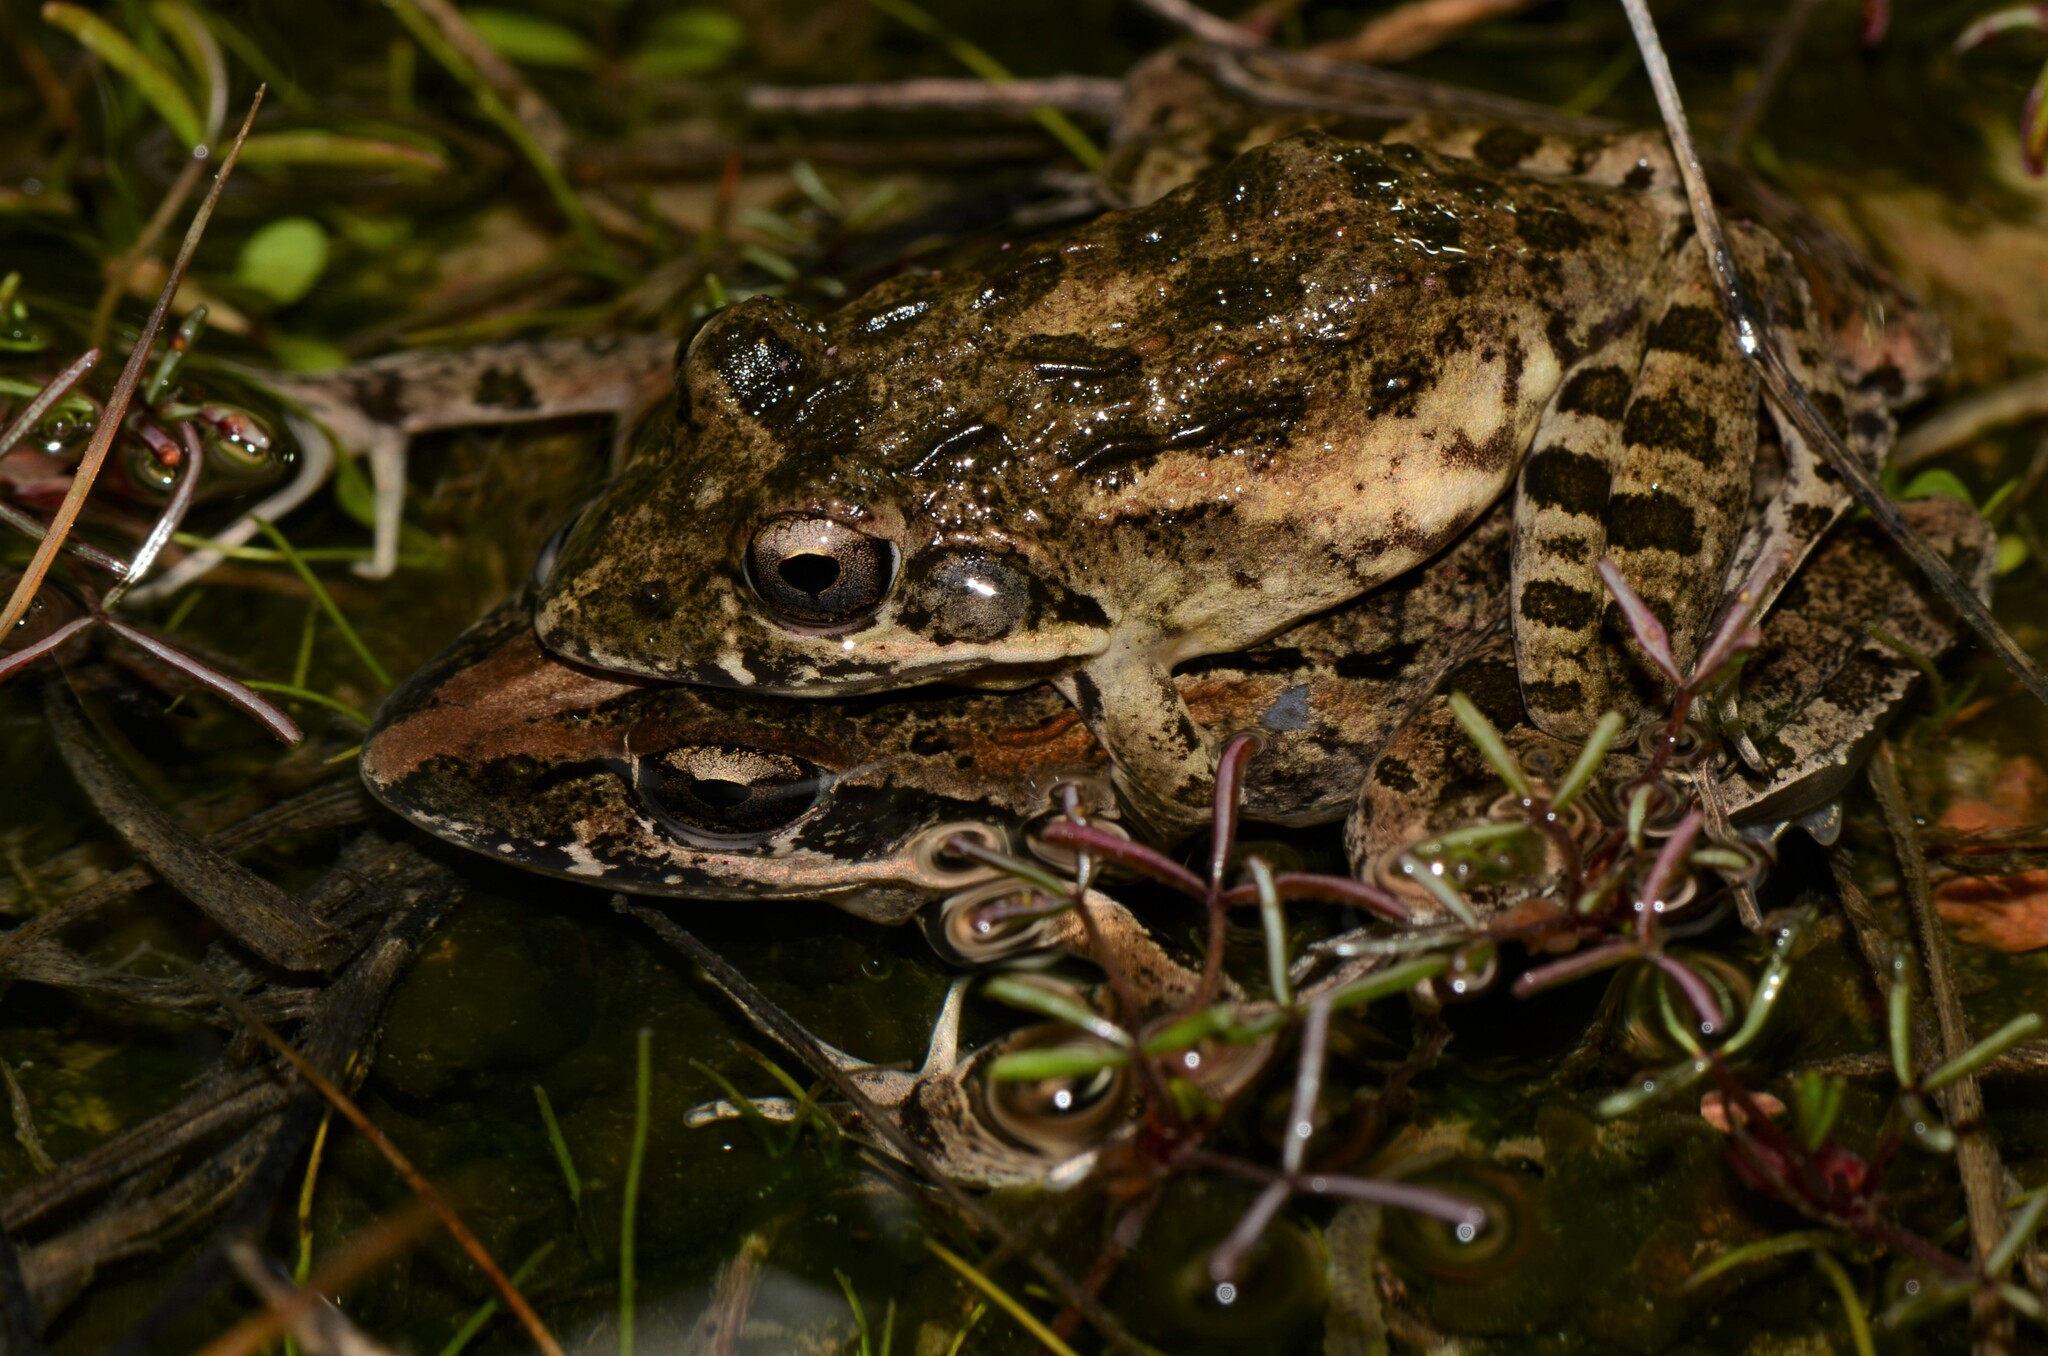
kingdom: Animalia
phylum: Chordata
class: Amphibia
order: Anura
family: Pyxicephalidae
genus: Strongylopus
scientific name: Strongylopus grayii
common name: Gray's stream frog
